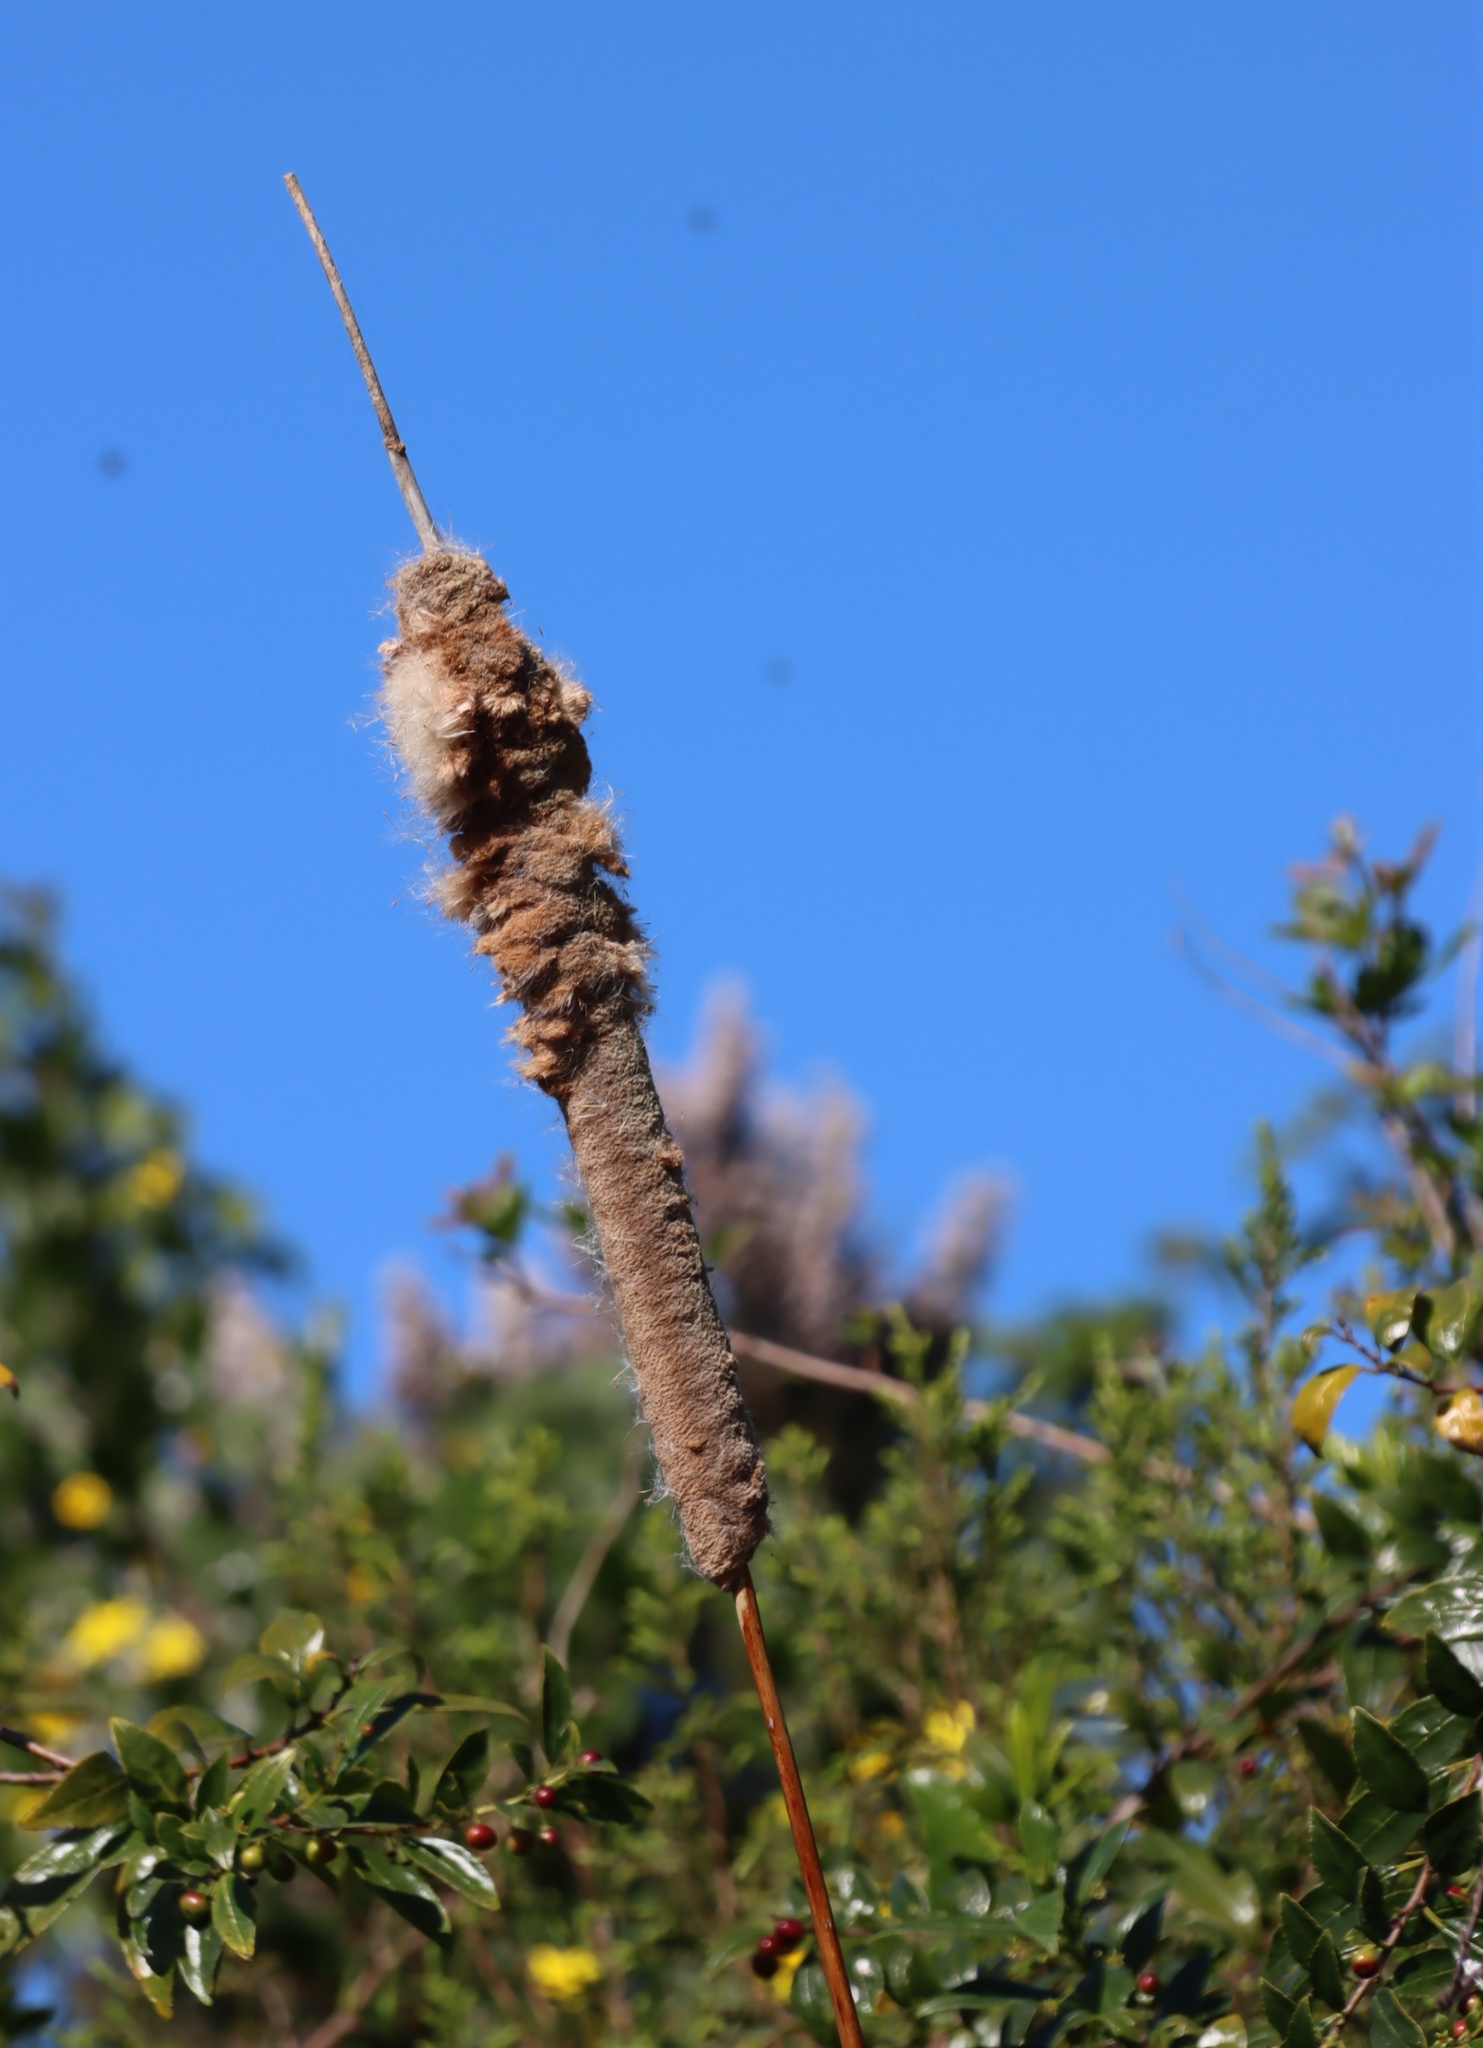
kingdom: Plantae
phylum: Tracheophyta
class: Liliopsida
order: Poales
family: Typhaceae
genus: Typha
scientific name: Typha capensis
